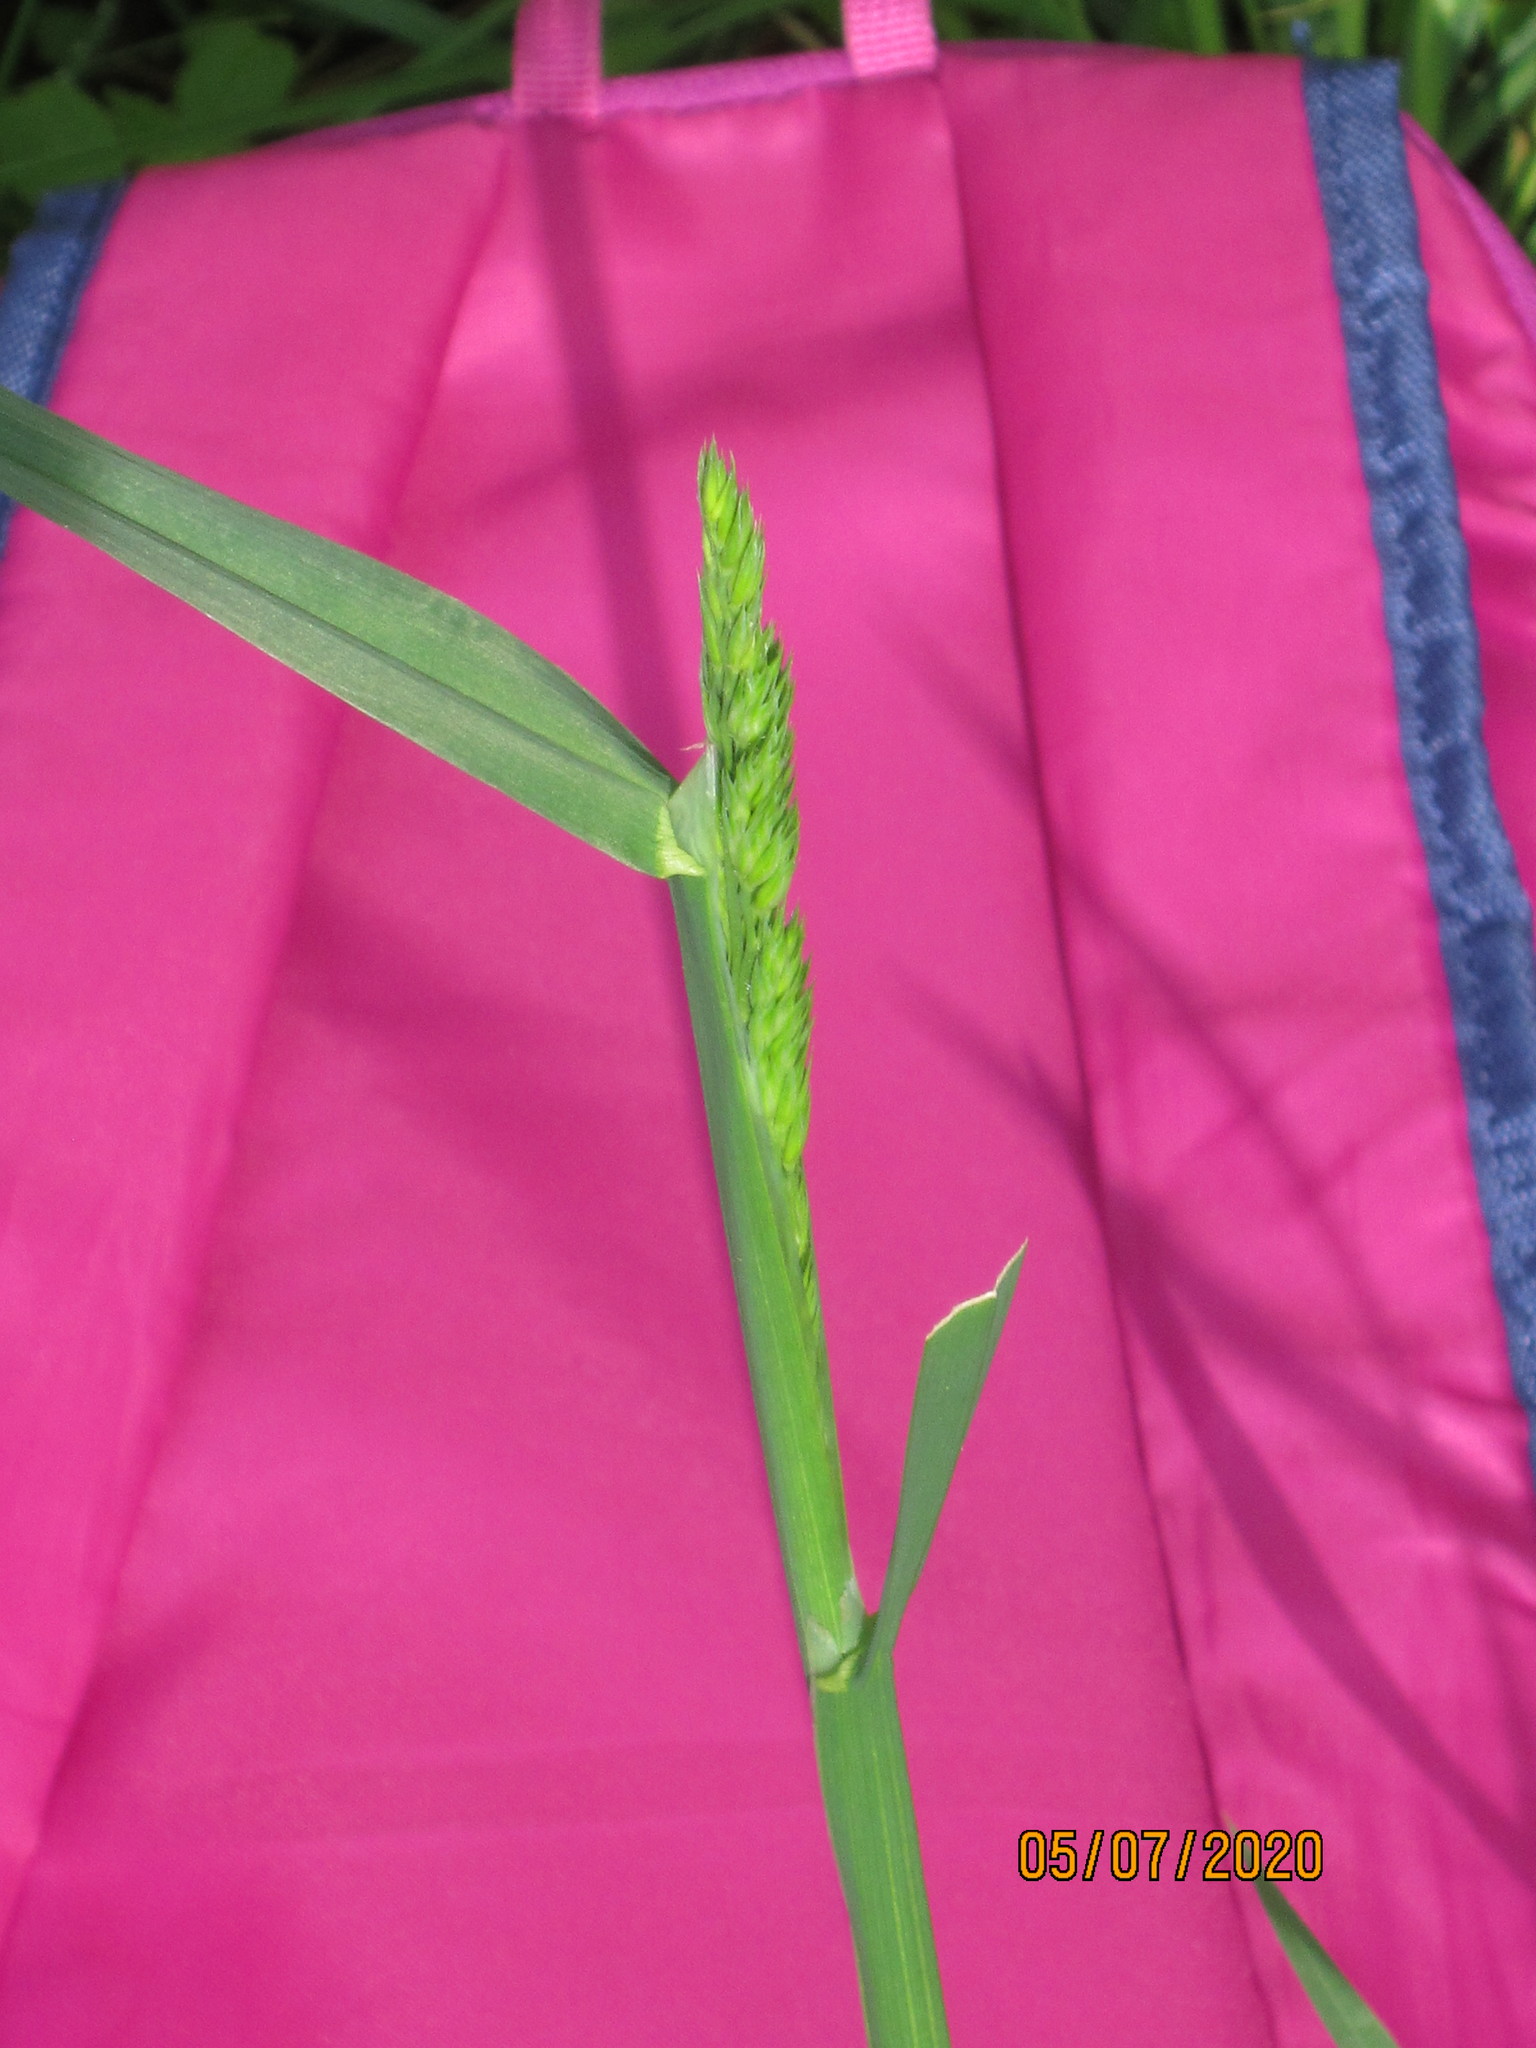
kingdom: Plantae
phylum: Tracheophyta
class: Liliopsida
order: Poales
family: Poaceae
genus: Dactylis
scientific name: Dactylis glomerata
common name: Orchardgrass
